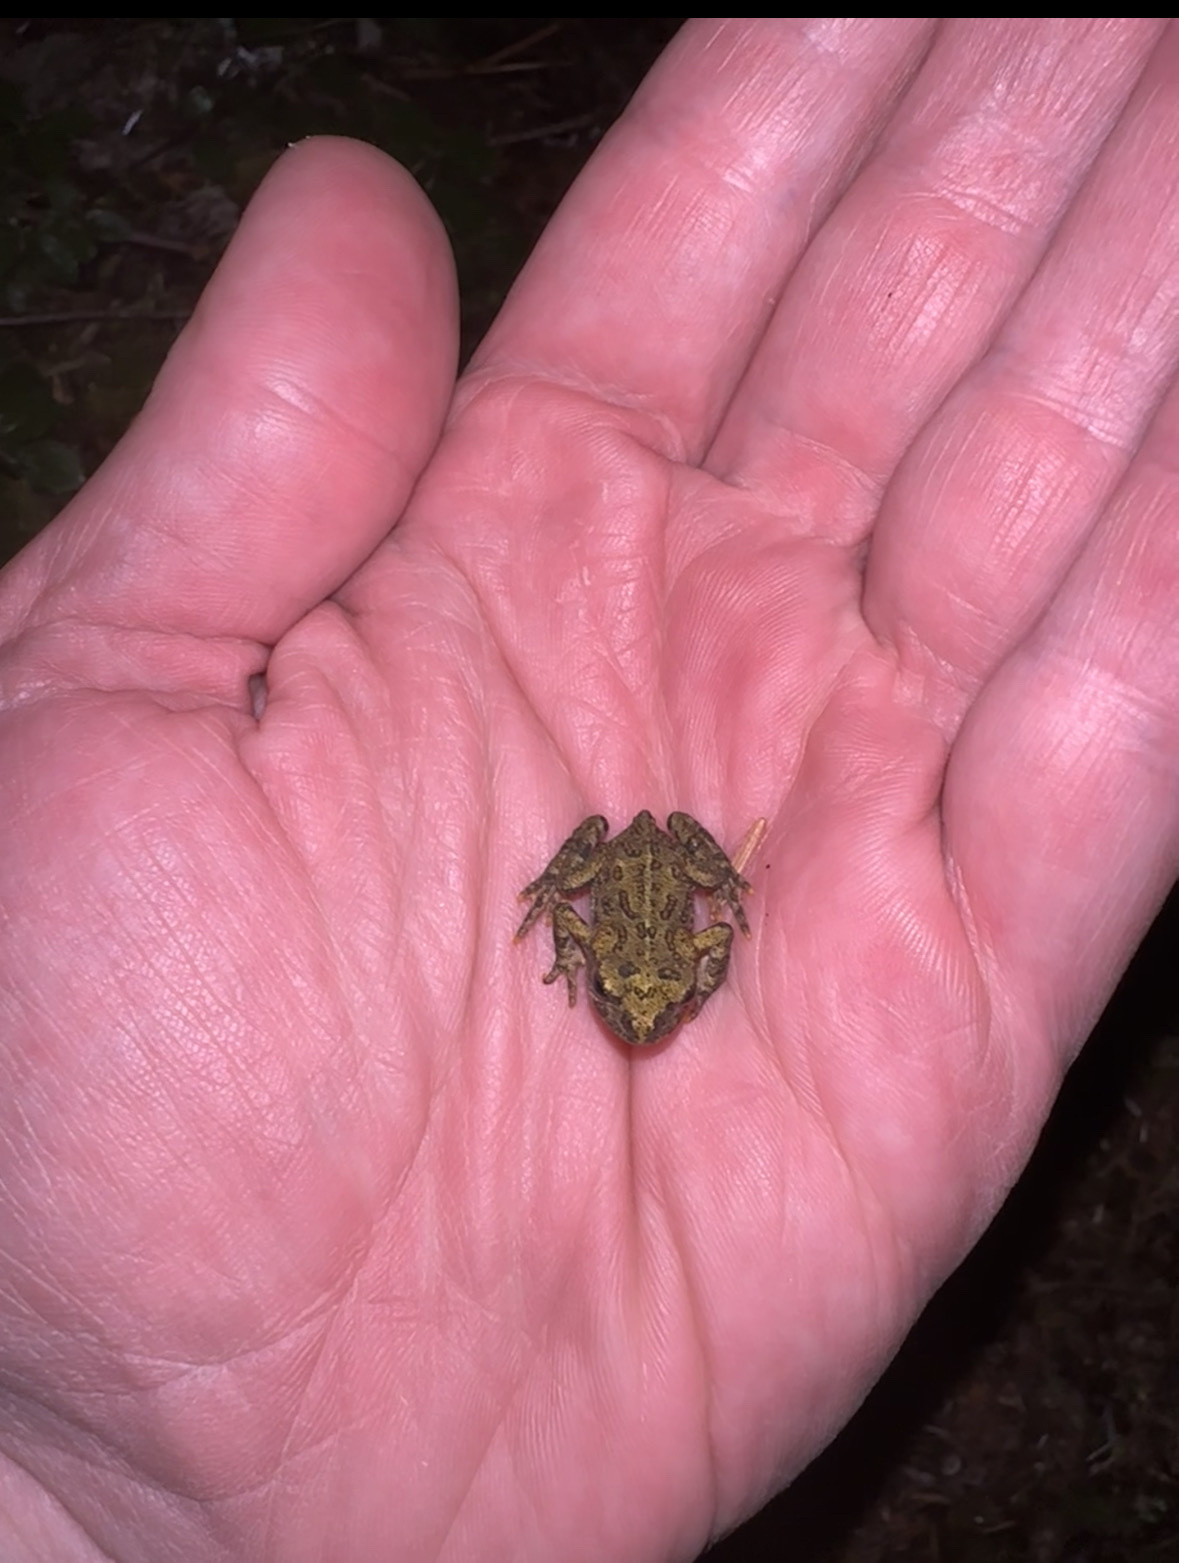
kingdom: Animalia
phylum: Chordata
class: Amphibia
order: Anura
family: Bufonidae
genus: Anaxyrus
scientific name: Anaxyrus boreas
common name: Western toad
